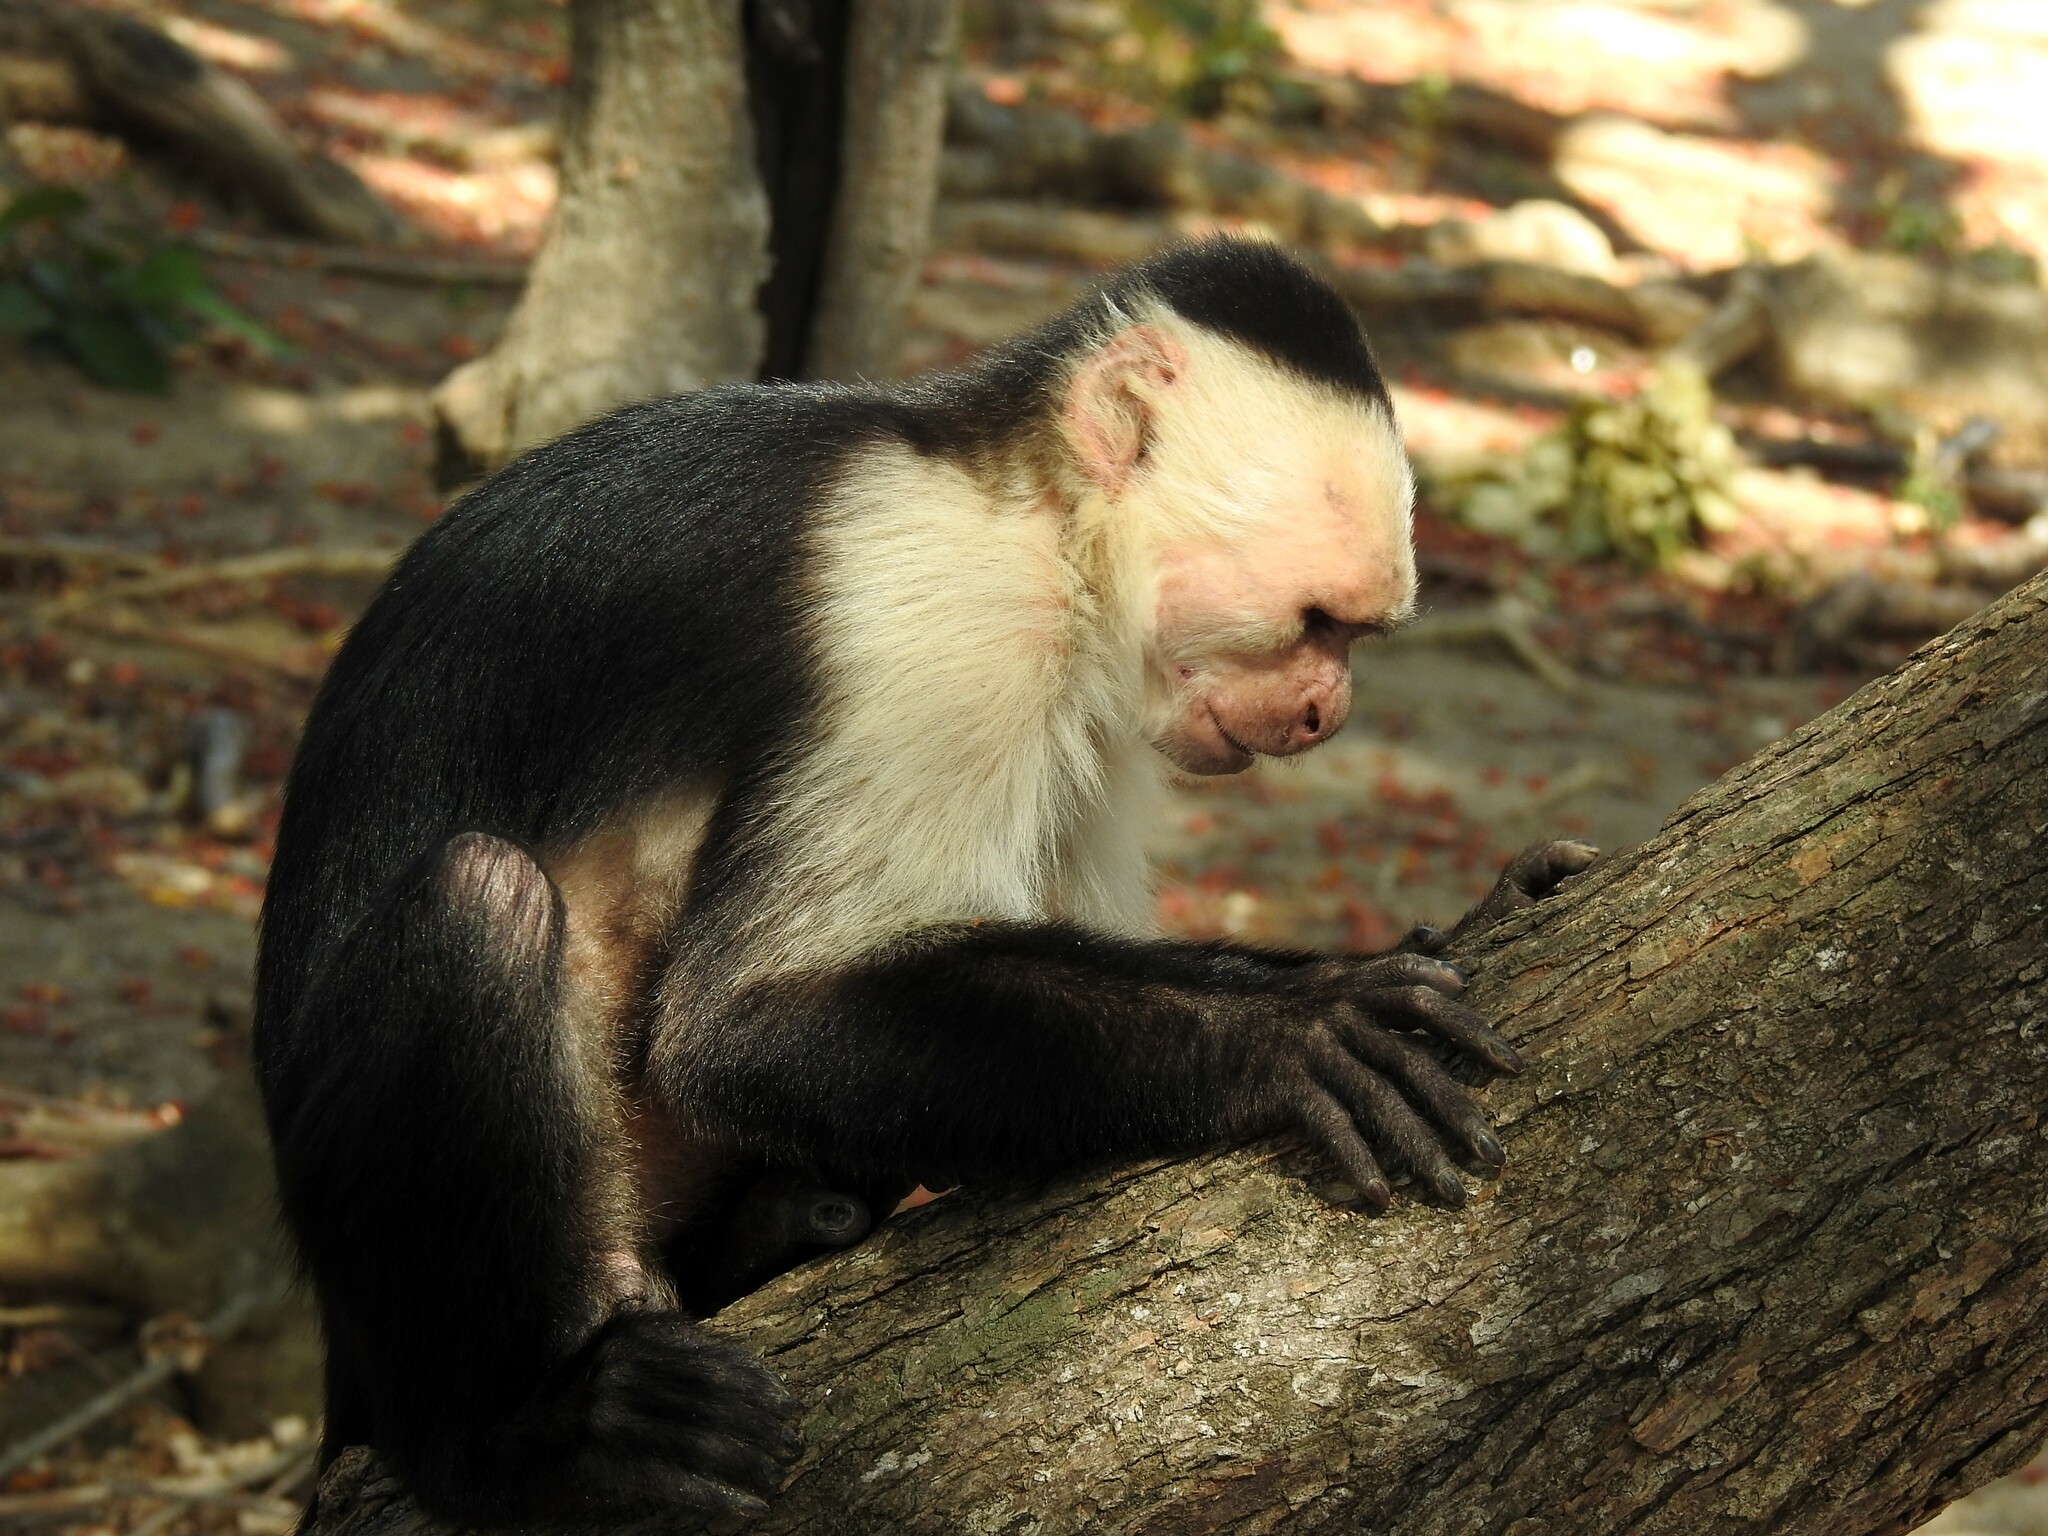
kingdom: Animalia
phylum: Chordata
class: Mammalia
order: Primates
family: Cebidae
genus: Cebus
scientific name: Cebus imitator
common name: Panamanian white-faced capuchin
